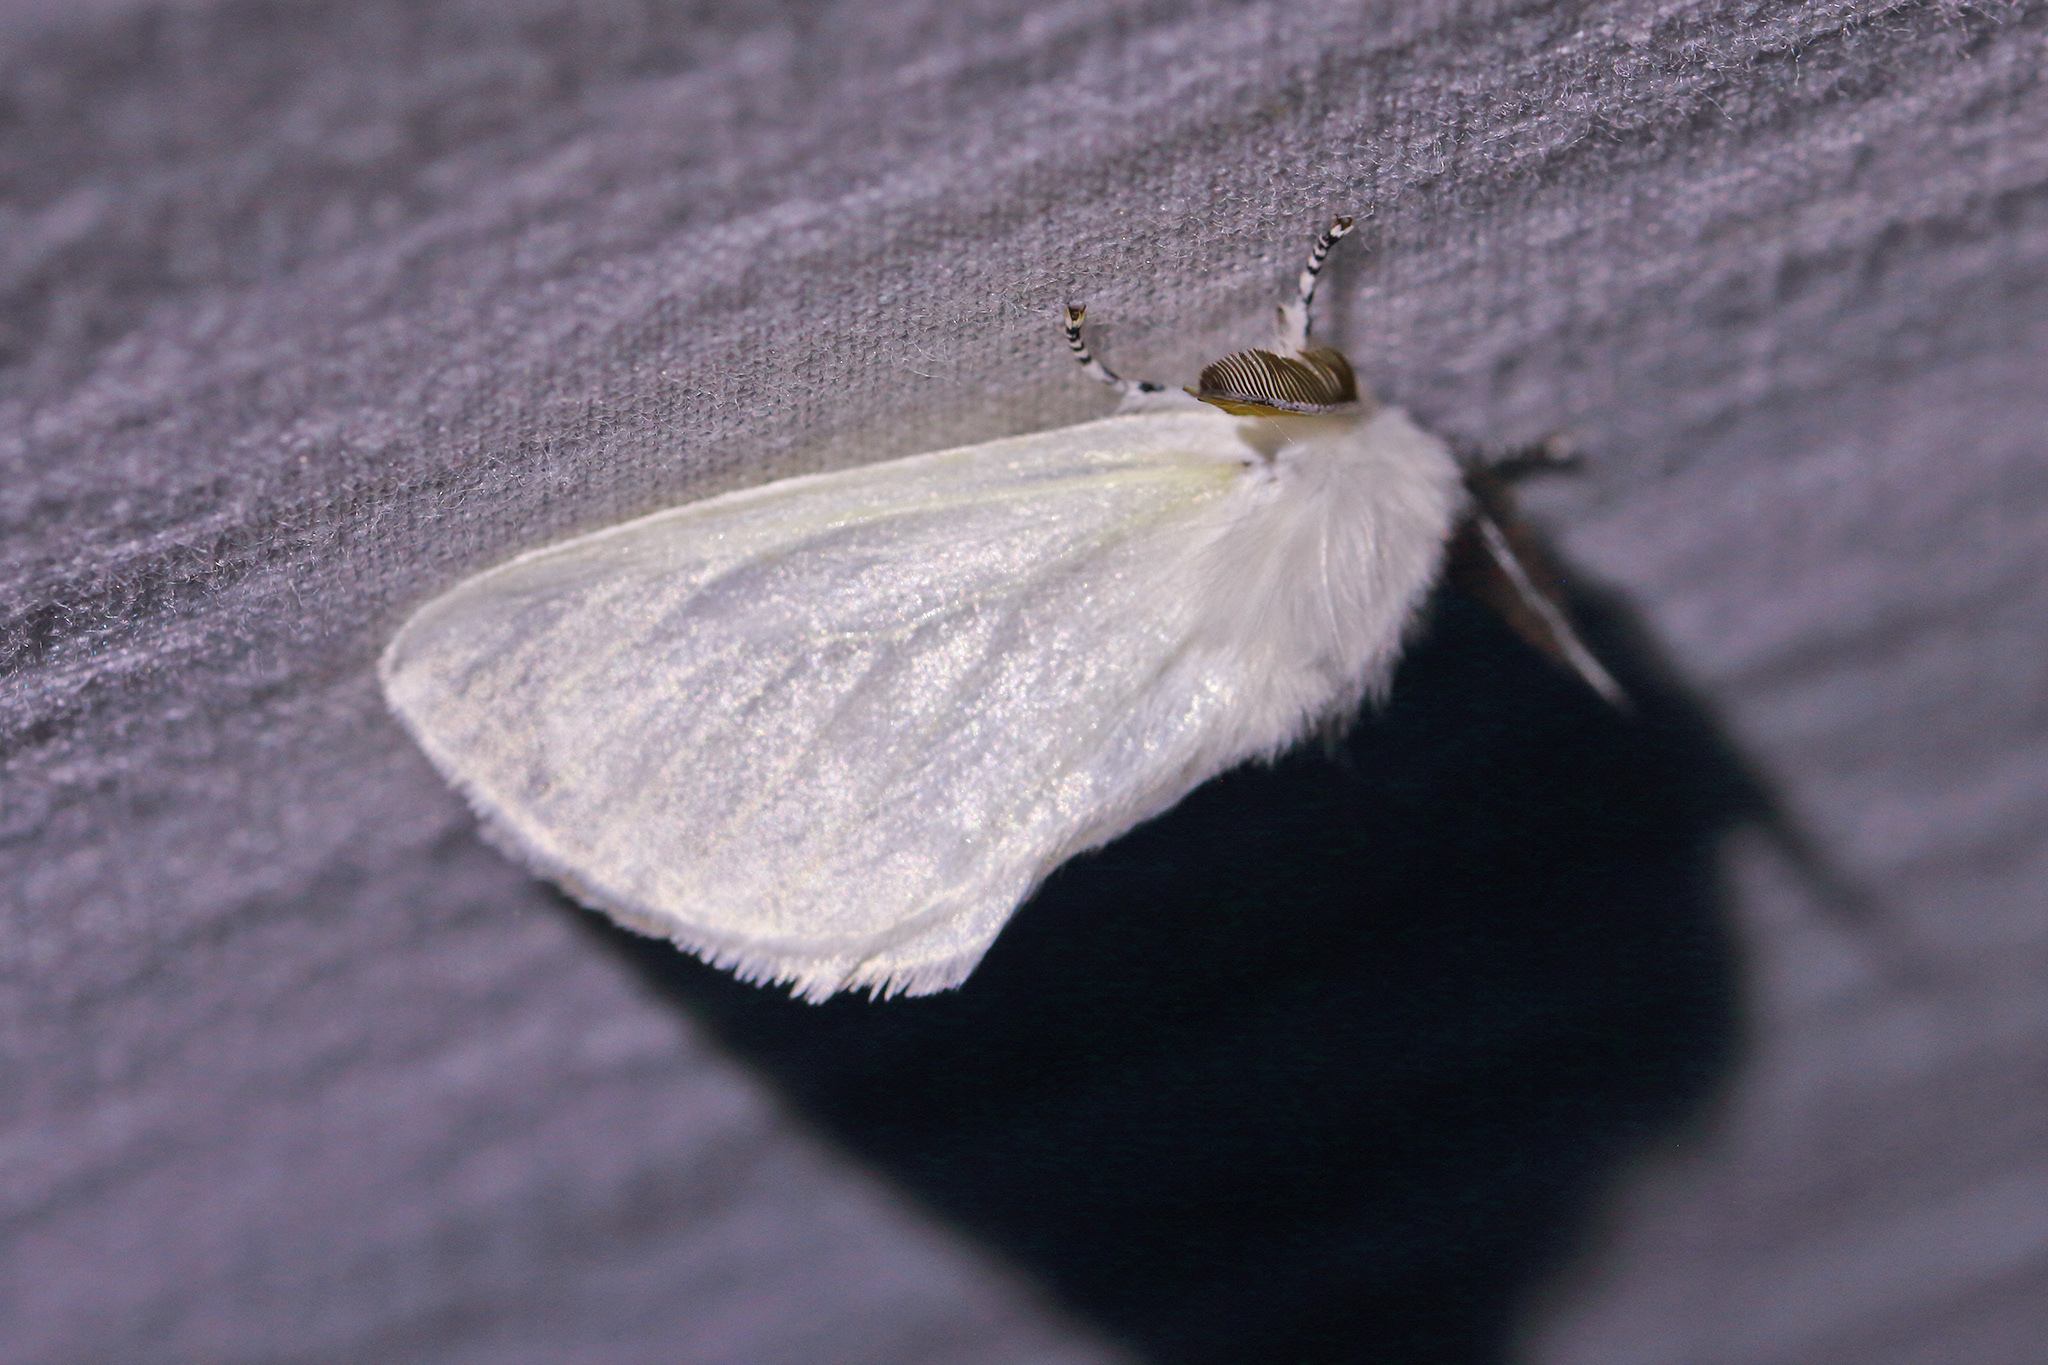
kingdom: Animalia
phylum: Arthropoda
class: Insecta
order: Lepidoptera
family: Erebidae
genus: Leucoma
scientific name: Leucoma salicis
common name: White satin moth
